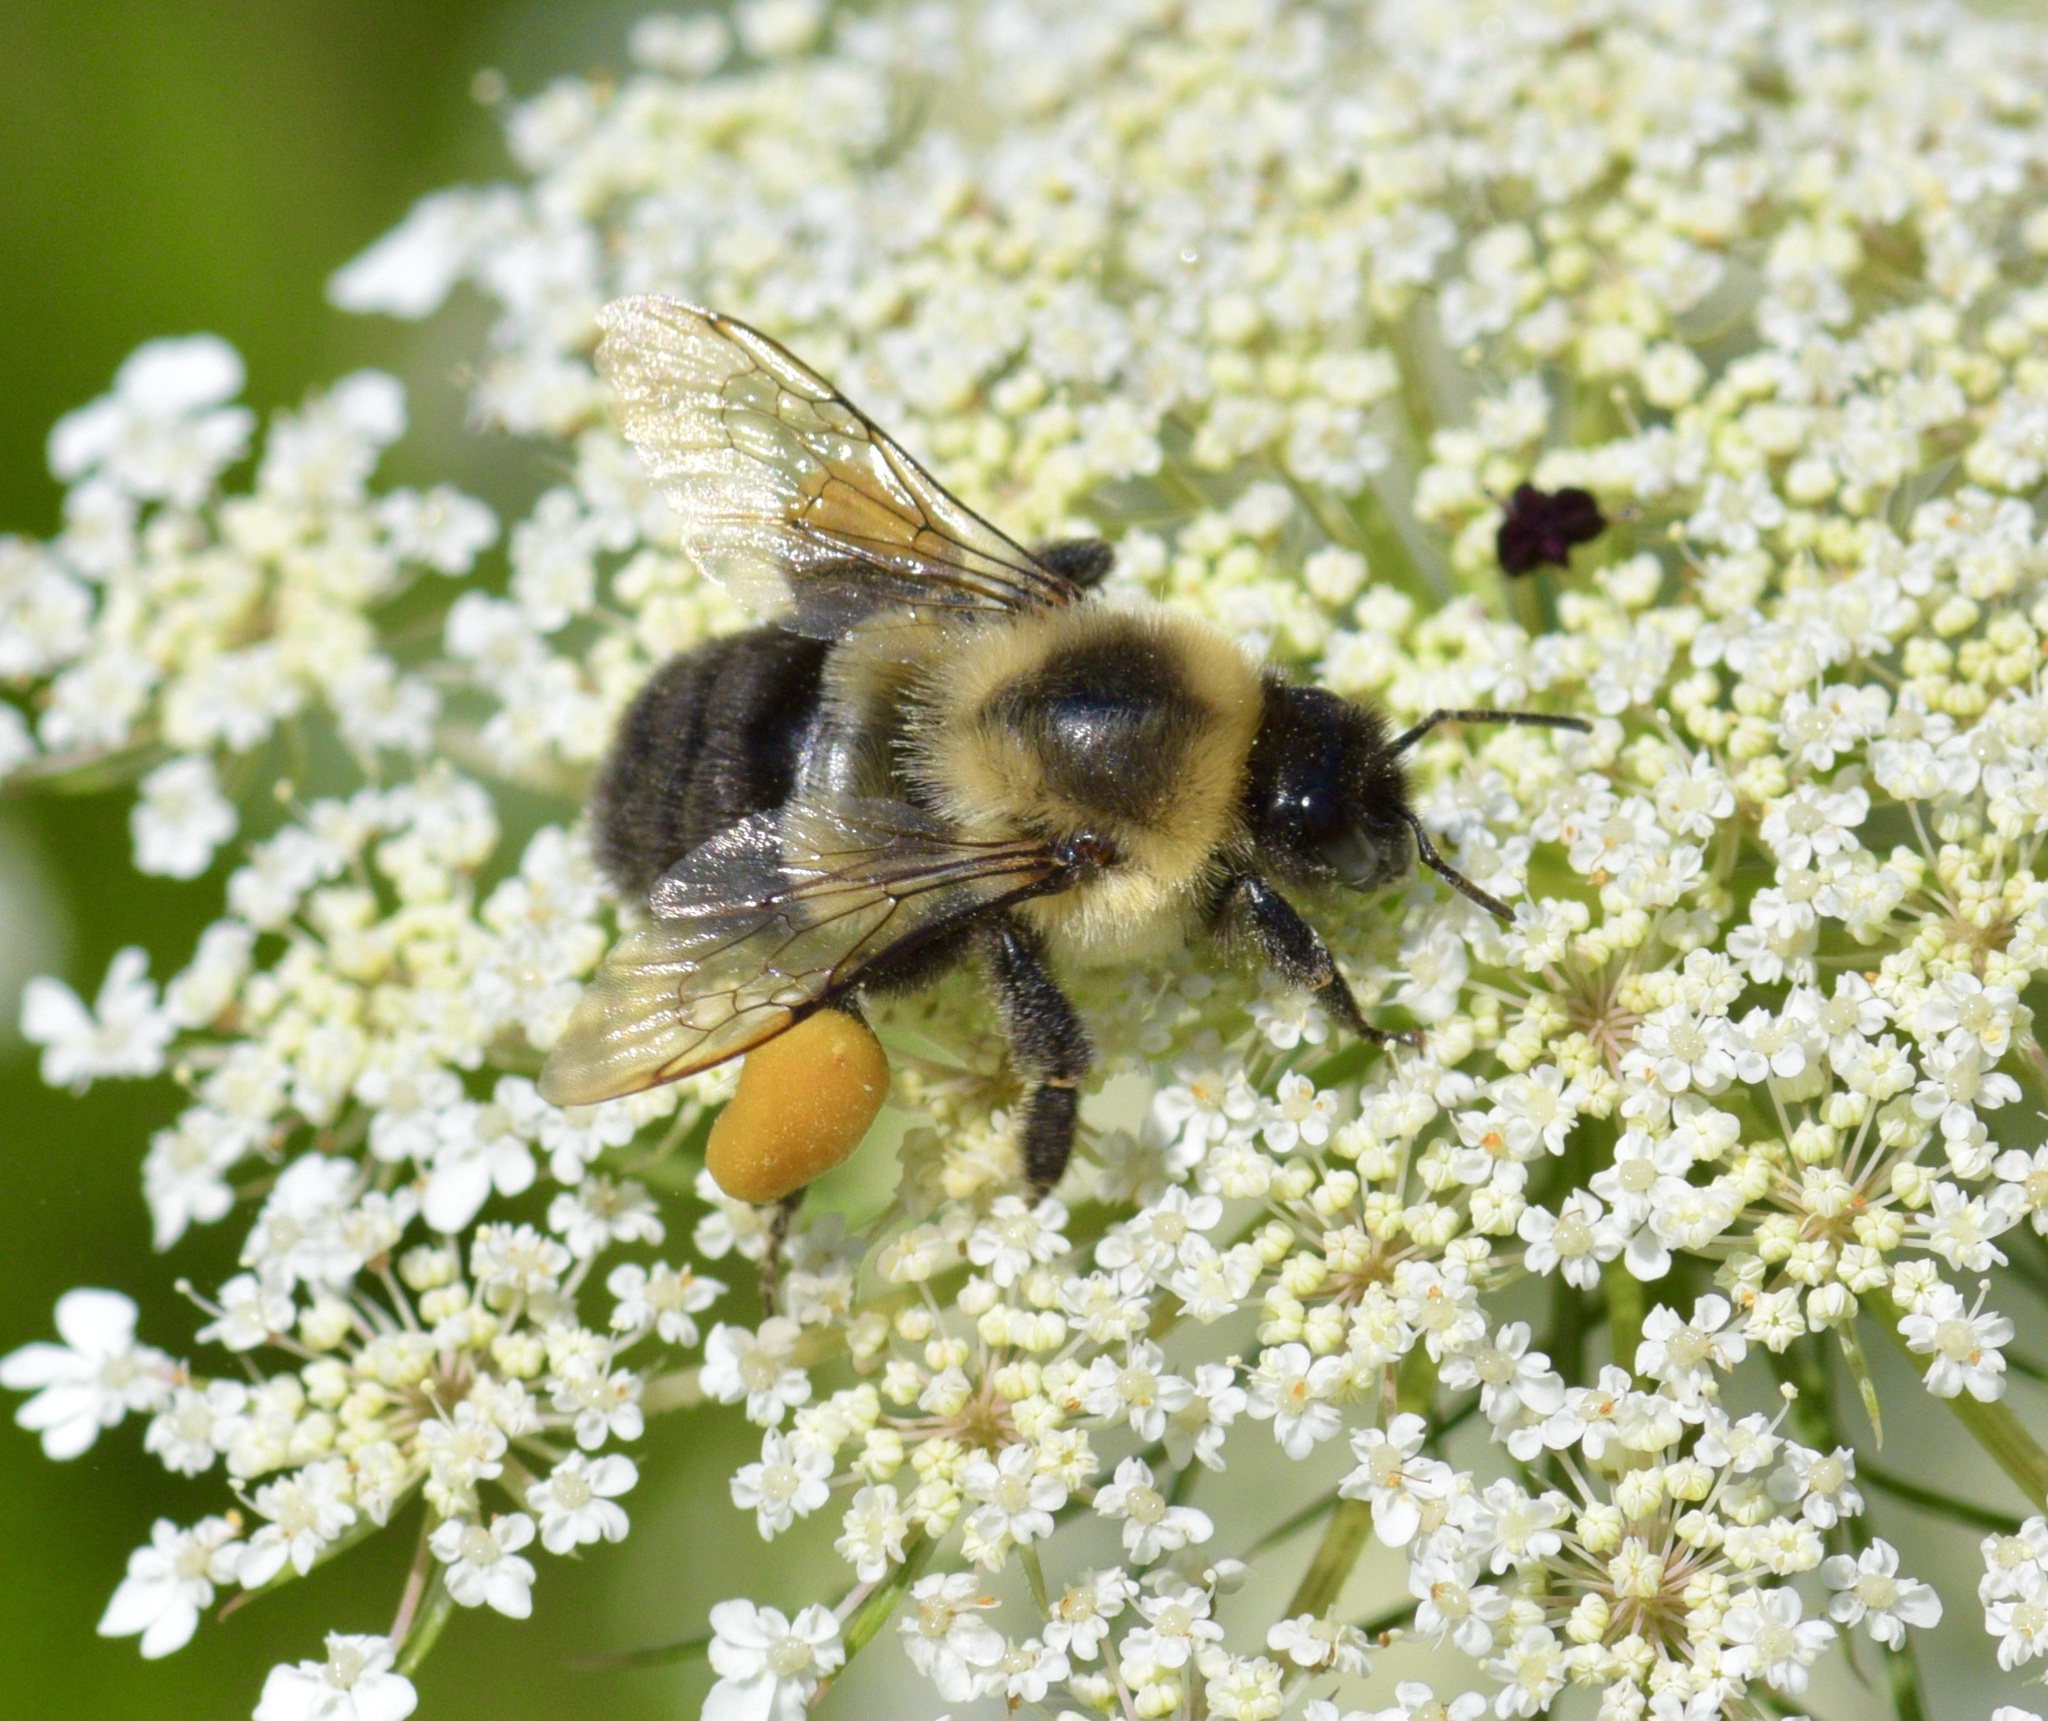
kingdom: Animalia
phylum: Arthropoda
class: Insecta
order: Hymenoptera
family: Apidae
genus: Bombus
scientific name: Bombus impatiens
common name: Common eastern bumble bee
